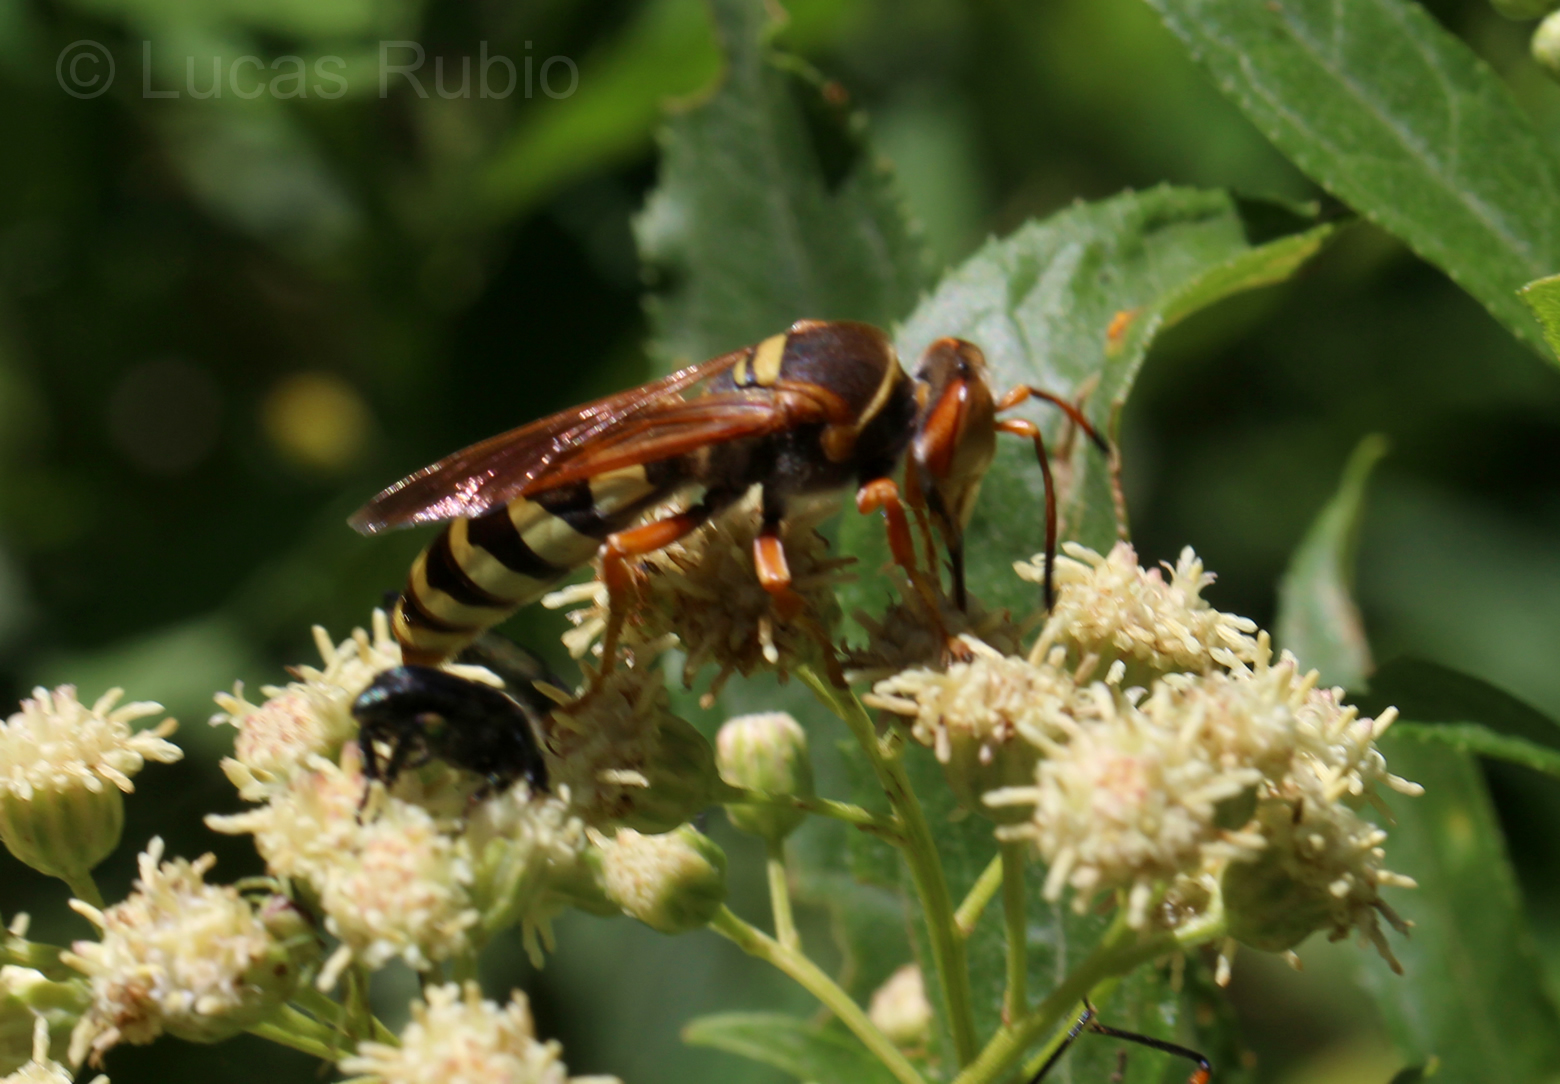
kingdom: Animalia
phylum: Arthropoda
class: Insecta
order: Hymenoptera
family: Crabronidae
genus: Rubrica
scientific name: Rubrica gravida
